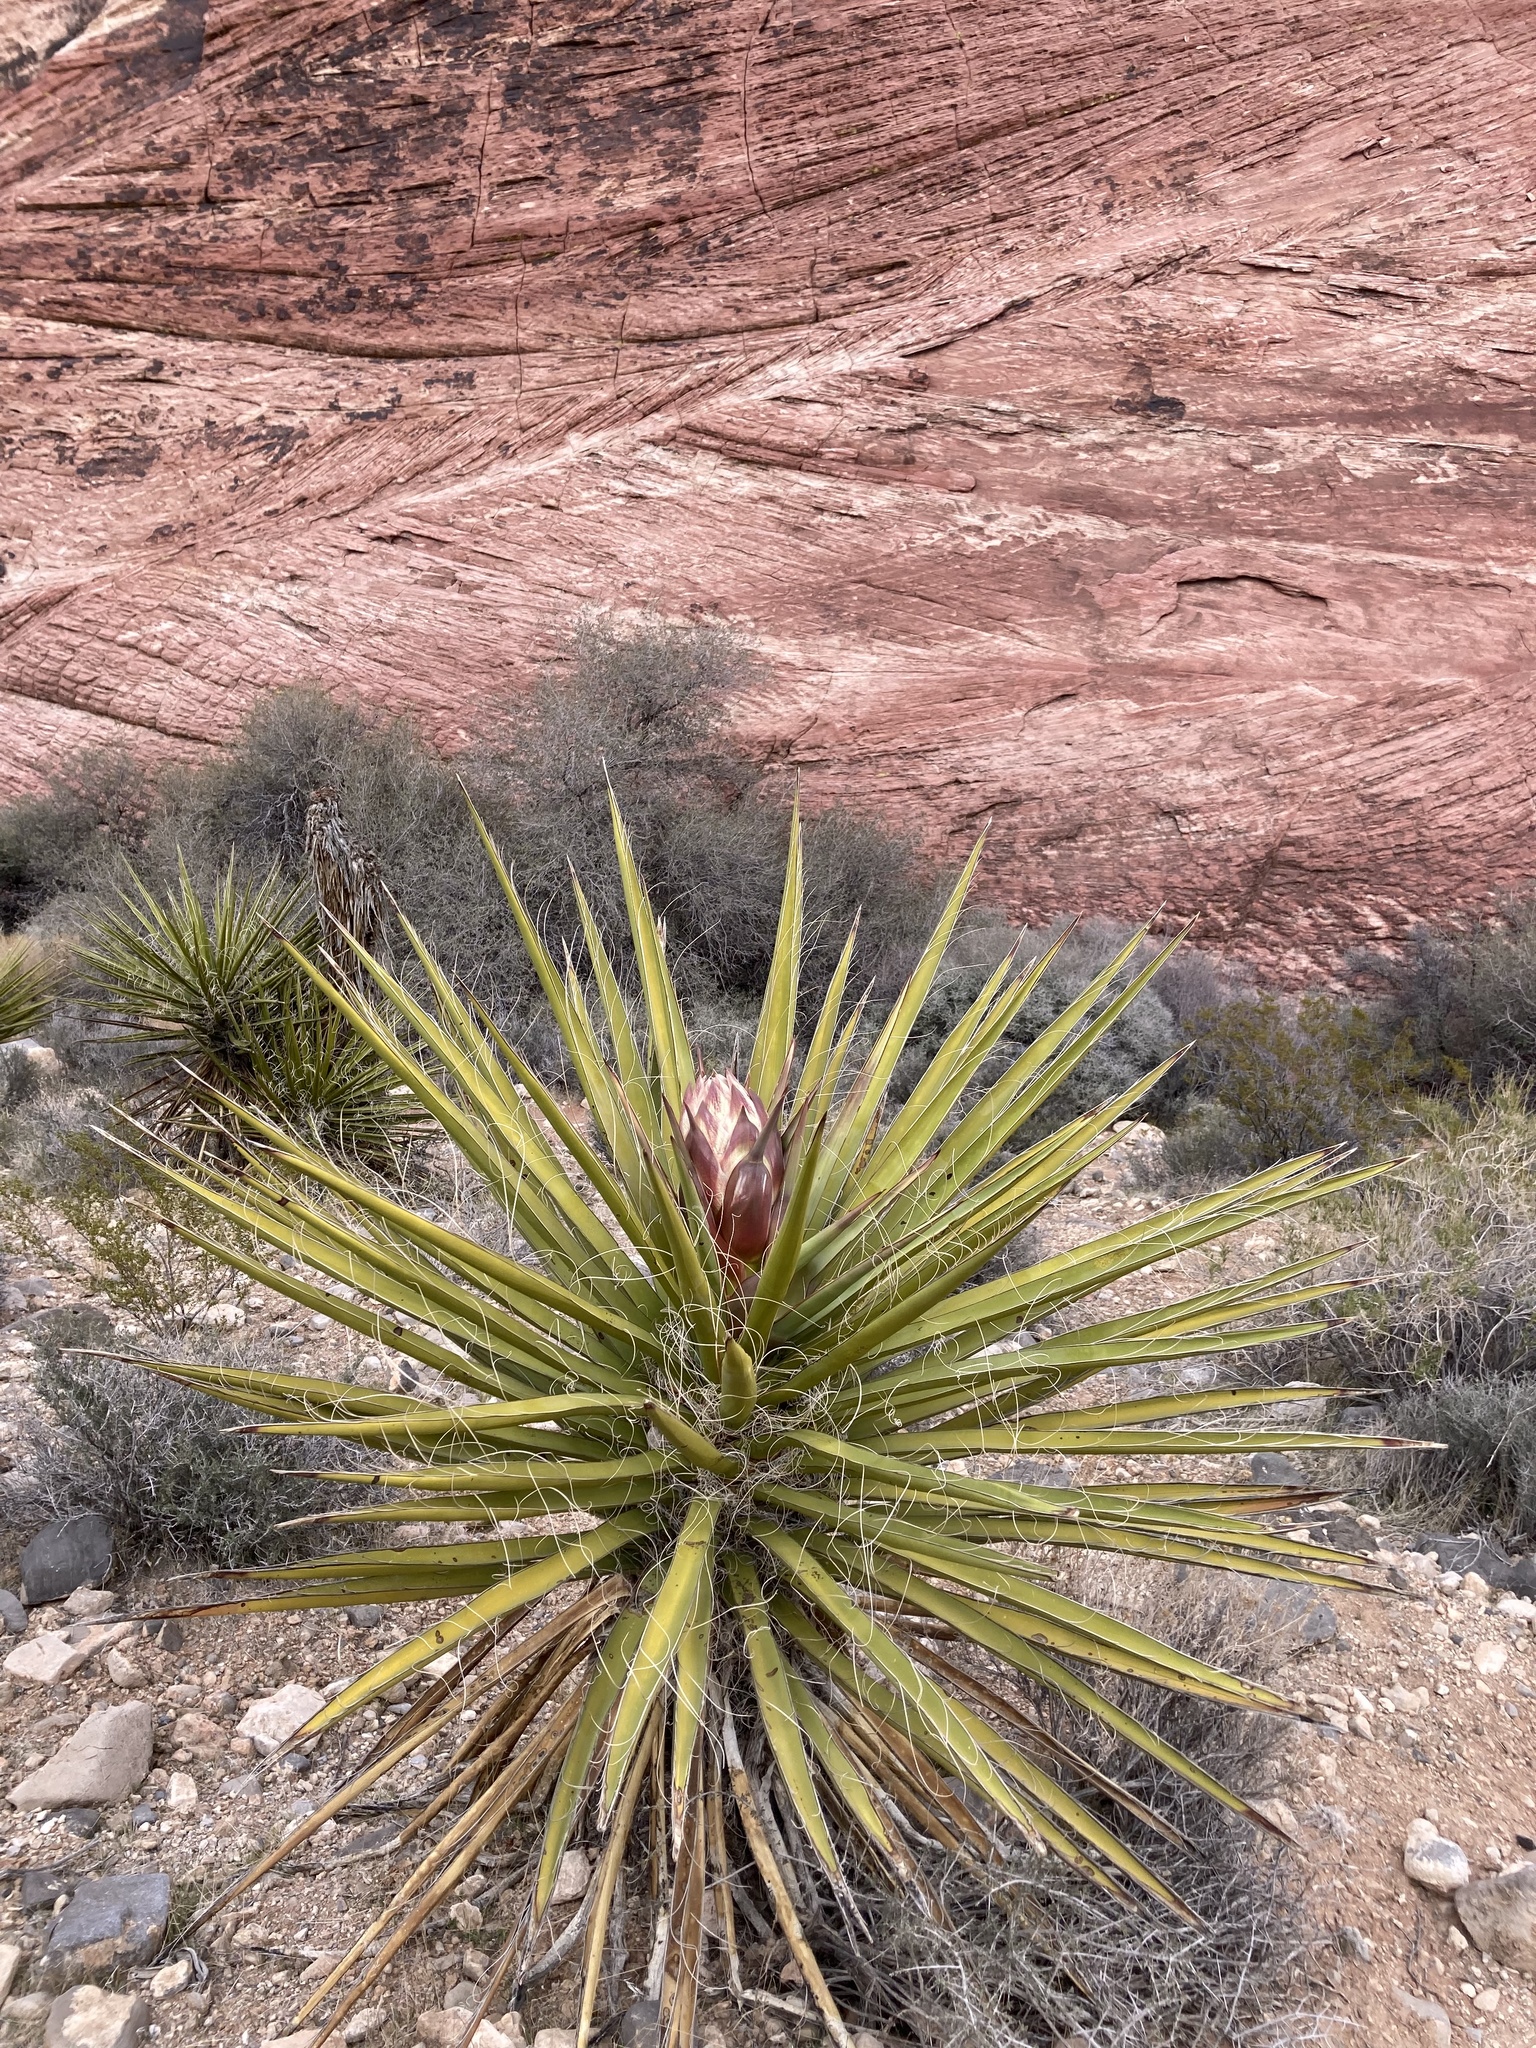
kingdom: Plantae
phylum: Tracheophyta
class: Liliopsida
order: Asparagales
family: Asparagaceae
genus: Yucca
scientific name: Yucca schidigera
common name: Mojave yucca
